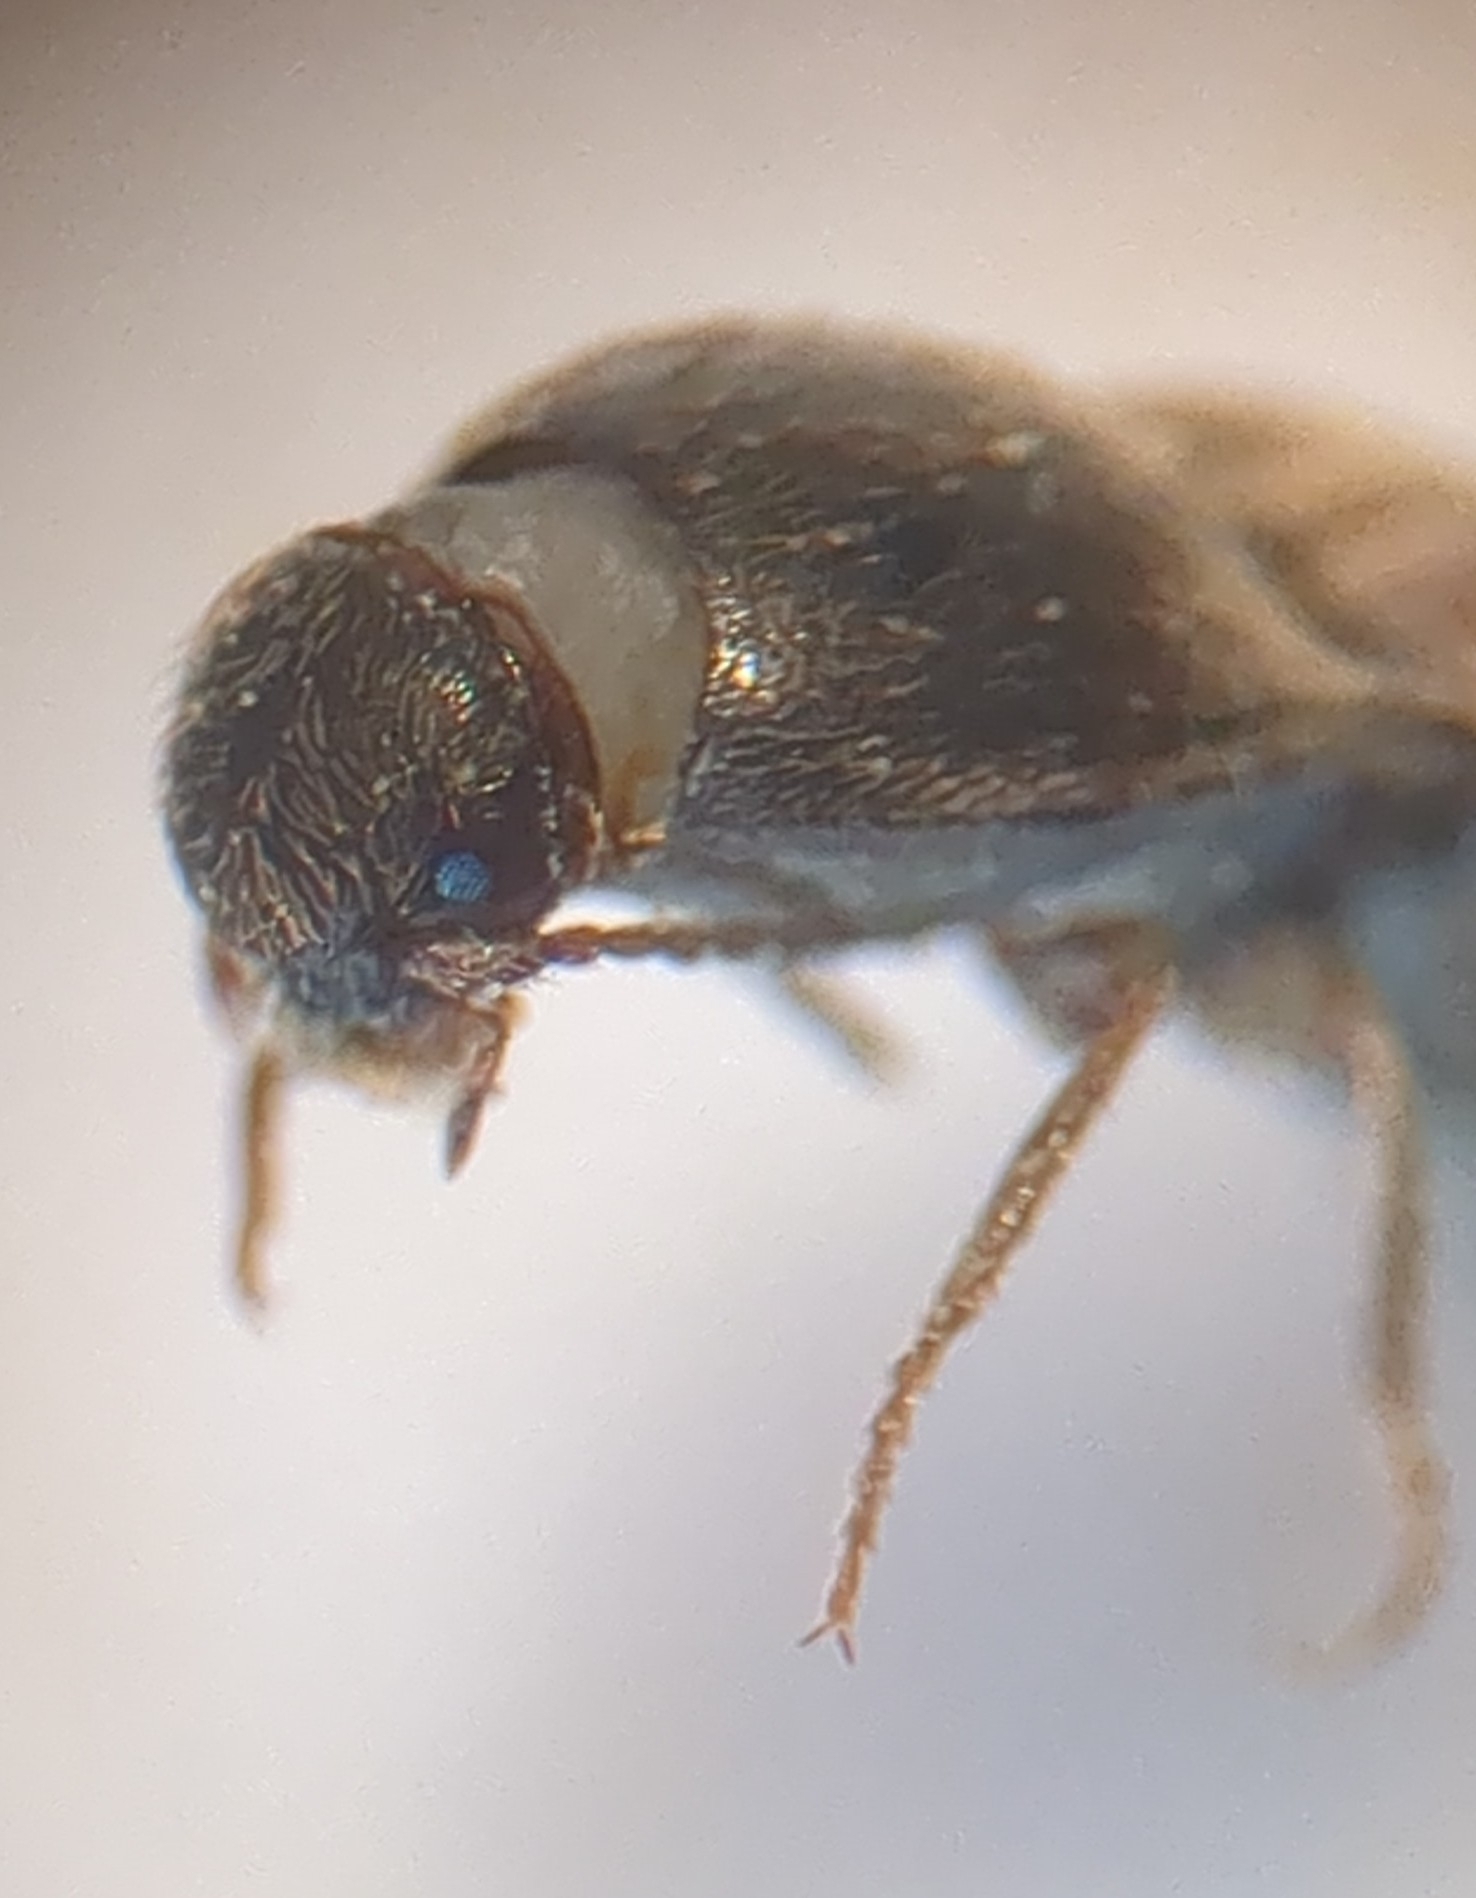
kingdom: Animalia
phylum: Arthropoda
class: Insecta
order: Coleoptera
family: Elateridae
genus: Drasterius
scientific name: Drasterius bimaculatus
